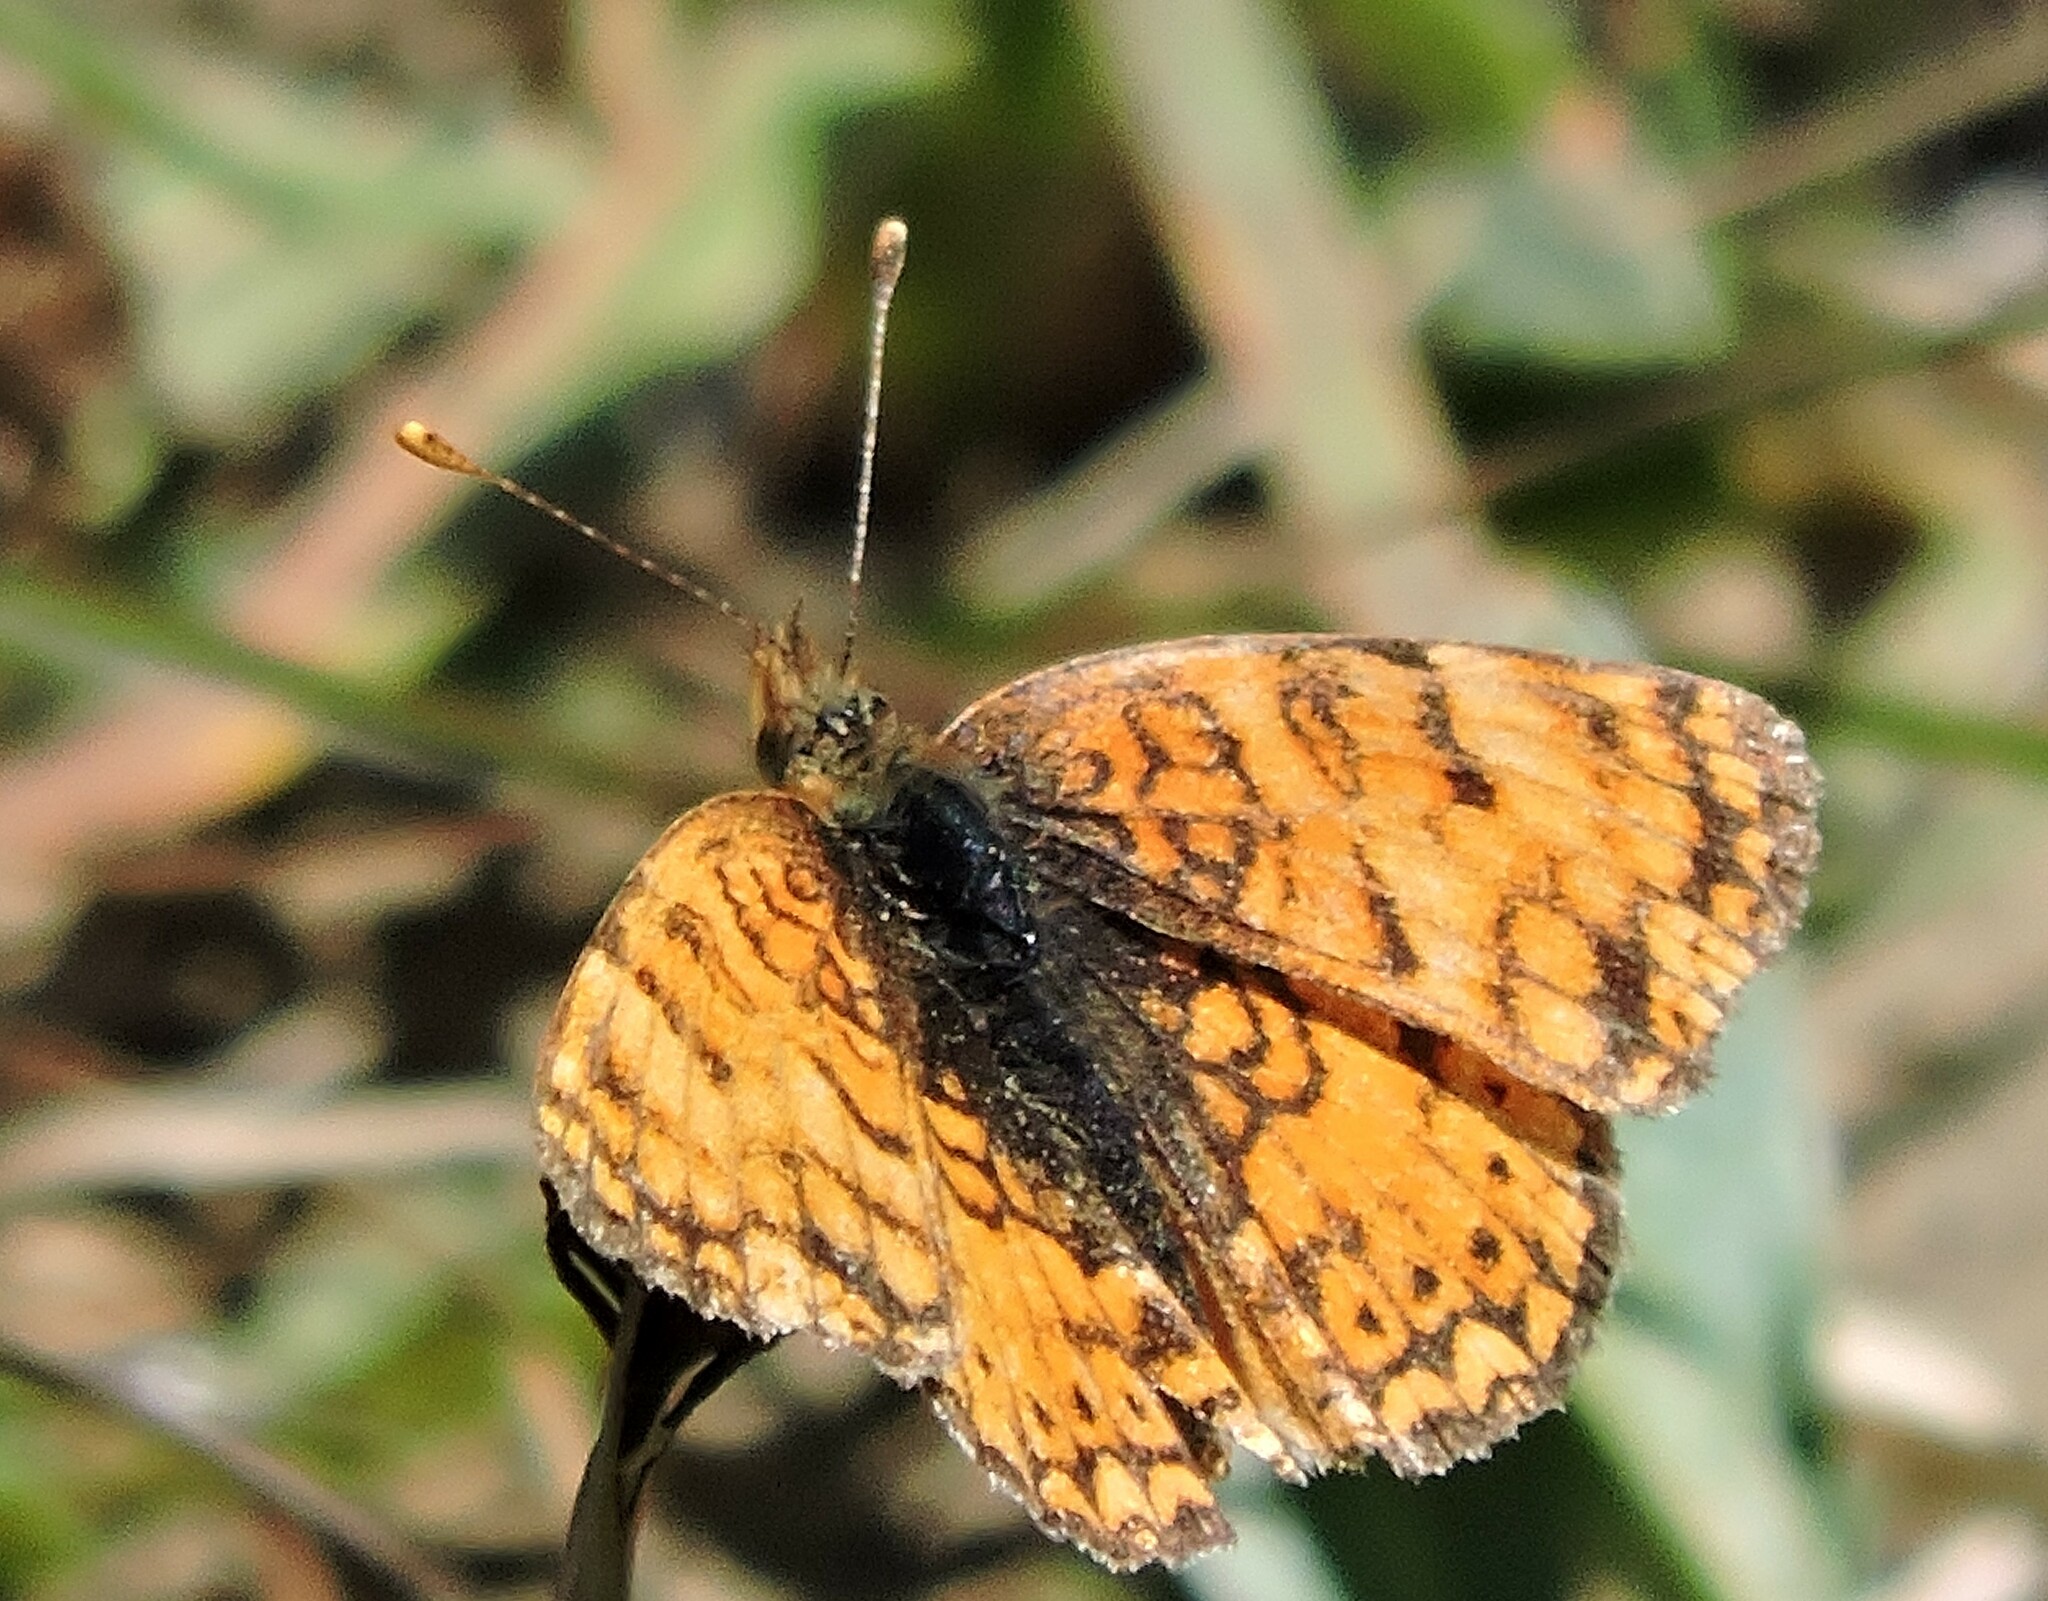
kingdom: Animalia
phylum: Arthropoda
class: Insecta
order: Lepidoptera
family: Nymphalidae
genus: Eresia
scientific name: Eresia aveyrona
